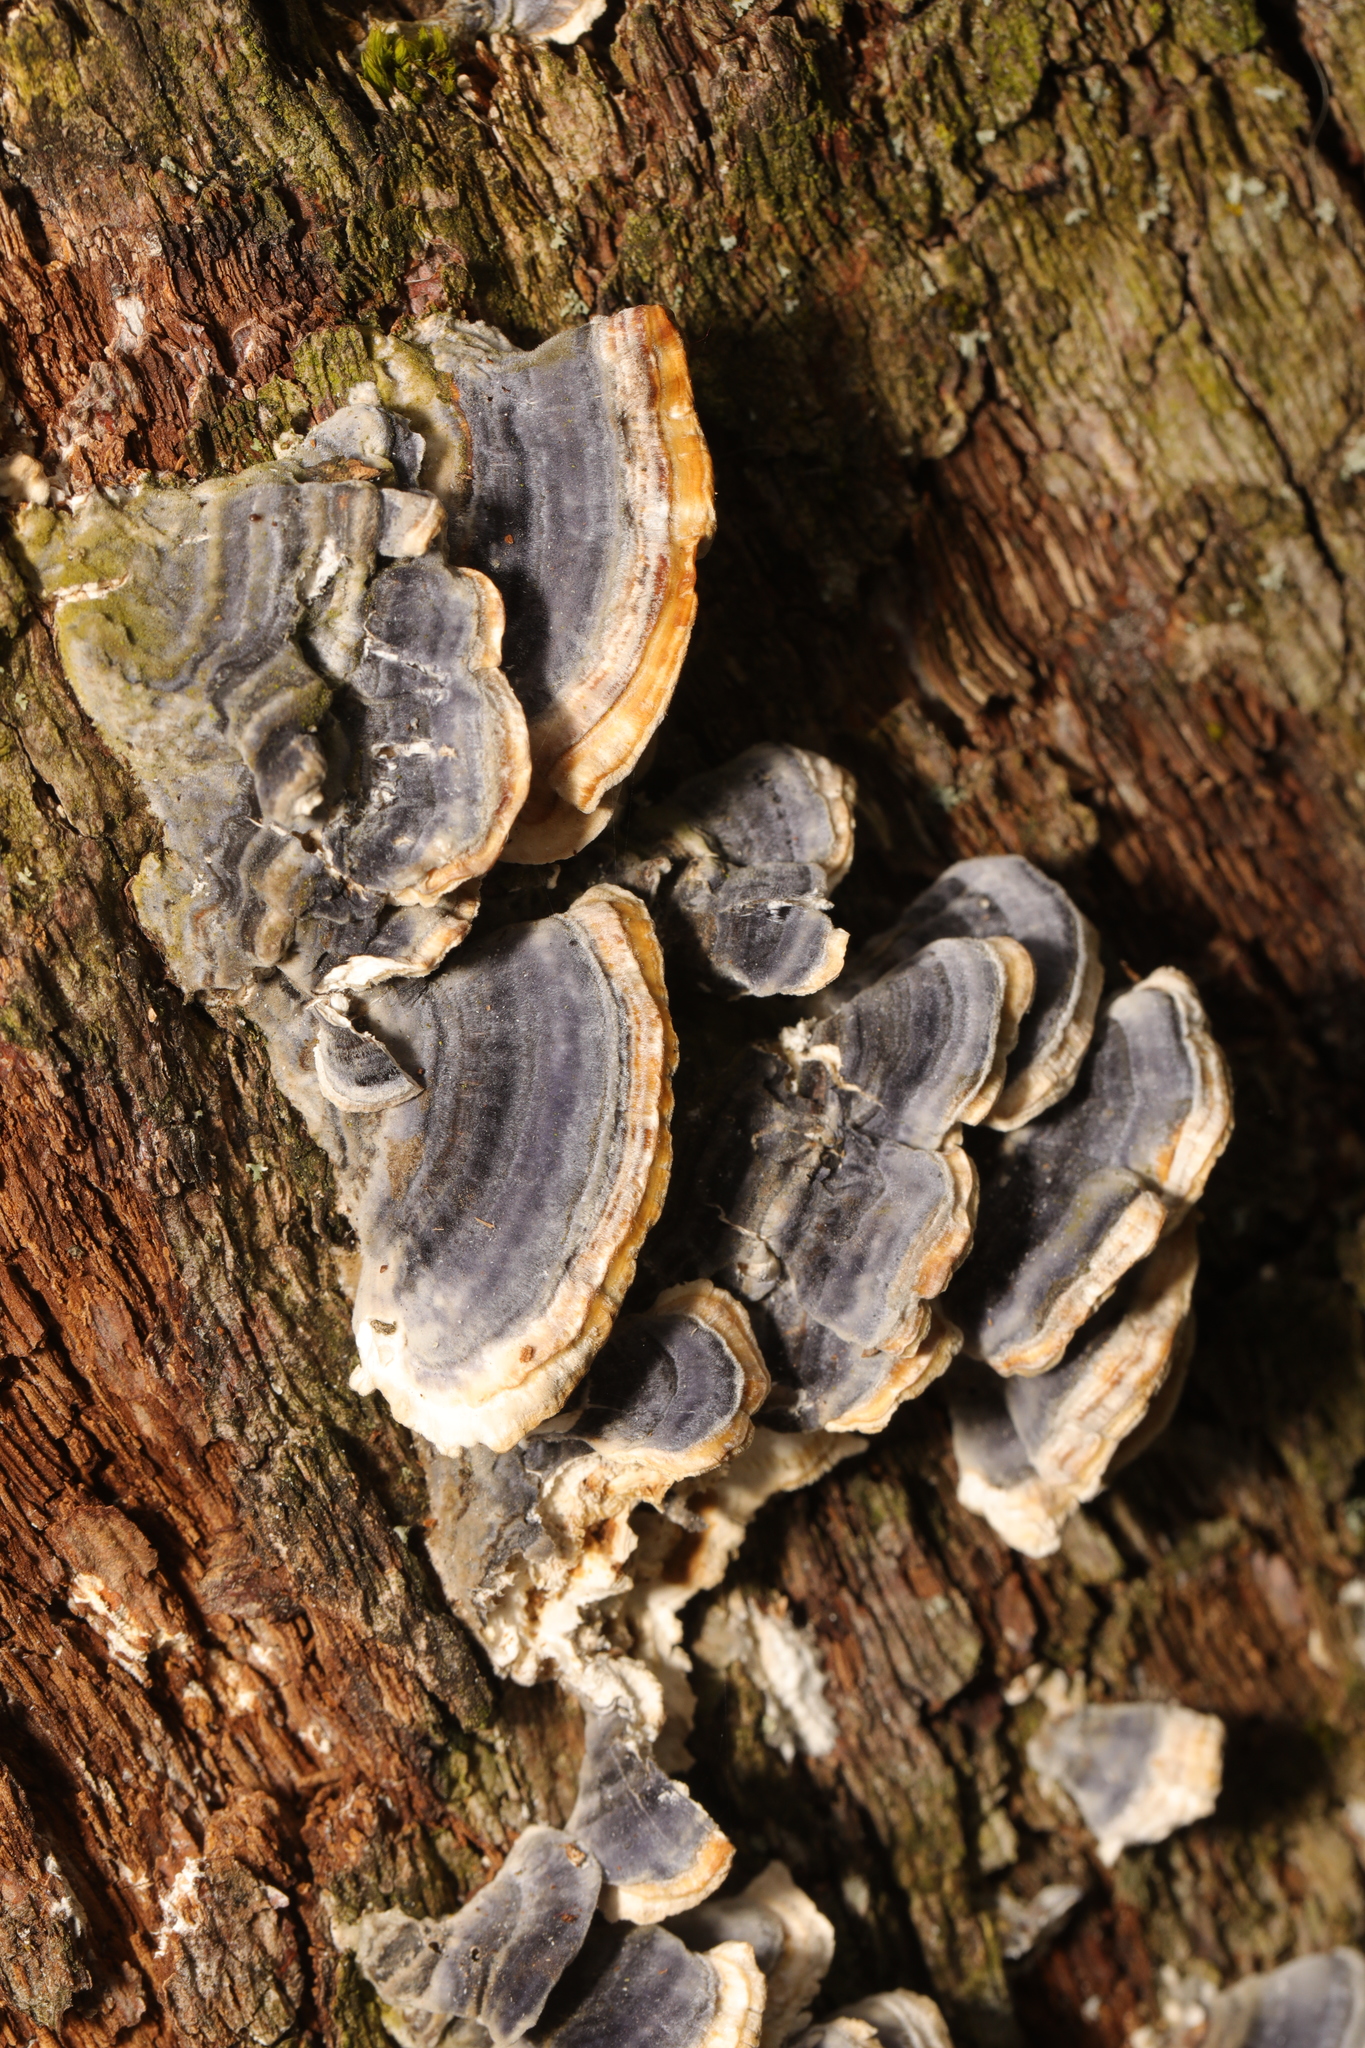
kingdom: Fungi
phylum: Basidiomycota
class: Agaricomycetes
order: Polyporales
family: Polyporaceae
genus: Trametes
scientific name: Trametes versicolor
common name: Turkeytail
